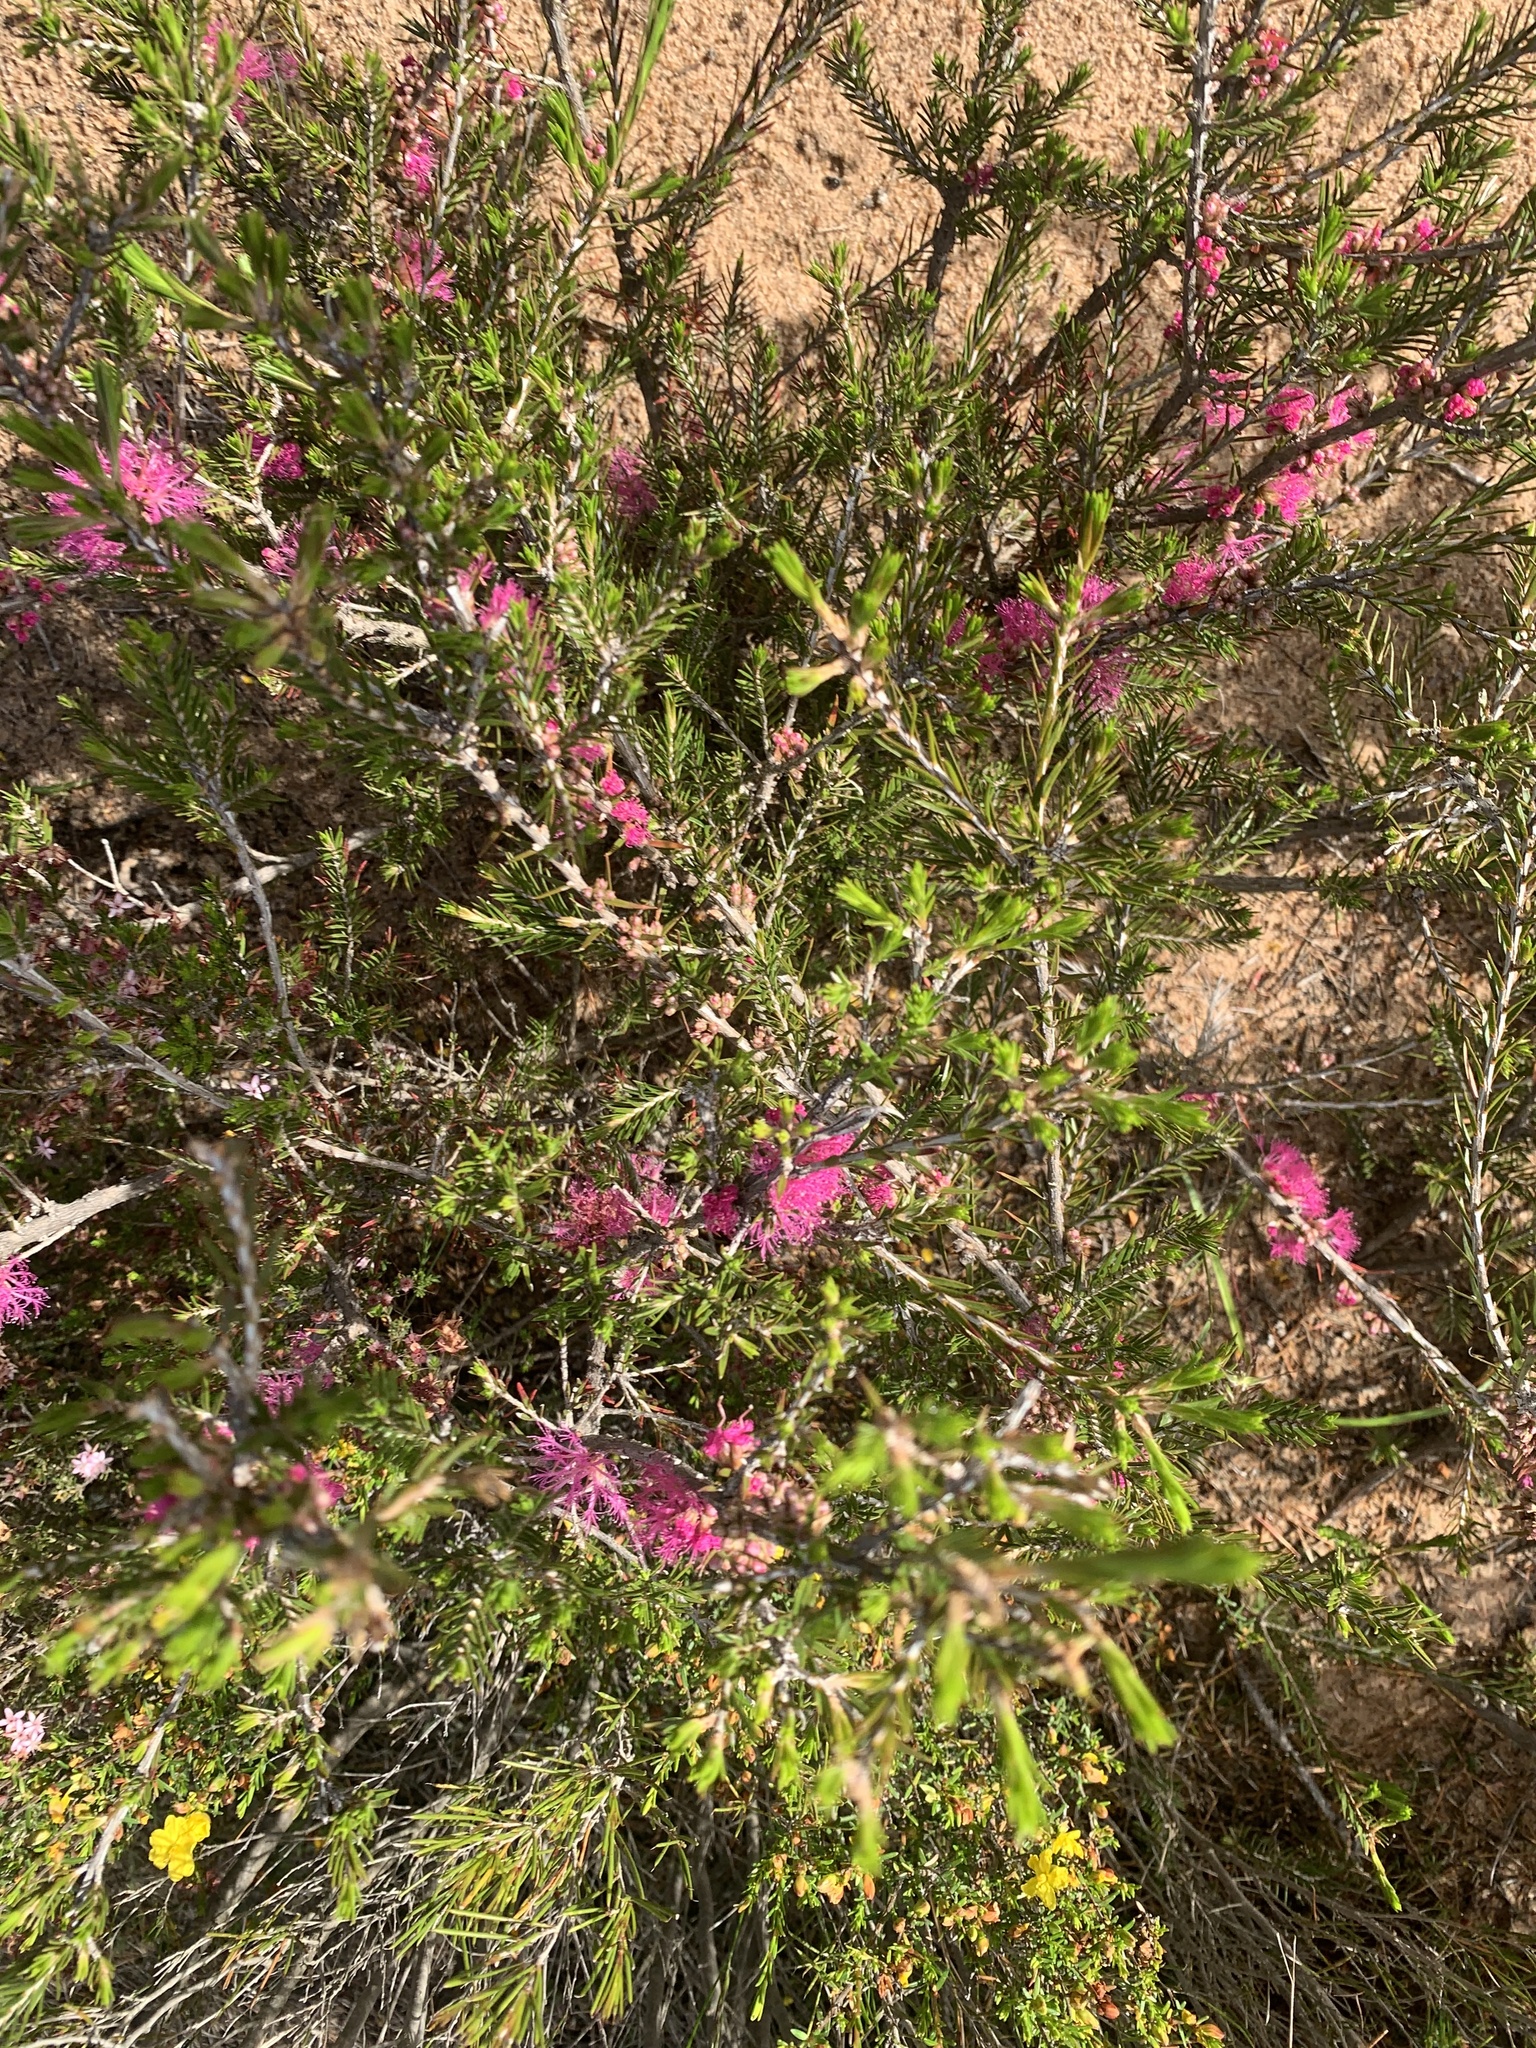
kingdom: Plantae
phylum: Tracheophyta
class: Magnoliopsida
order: Myrtales
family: Myrtaceae
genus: Melaleuca
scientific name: Melaleuca wilsonii
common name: Violet honey myrtle
